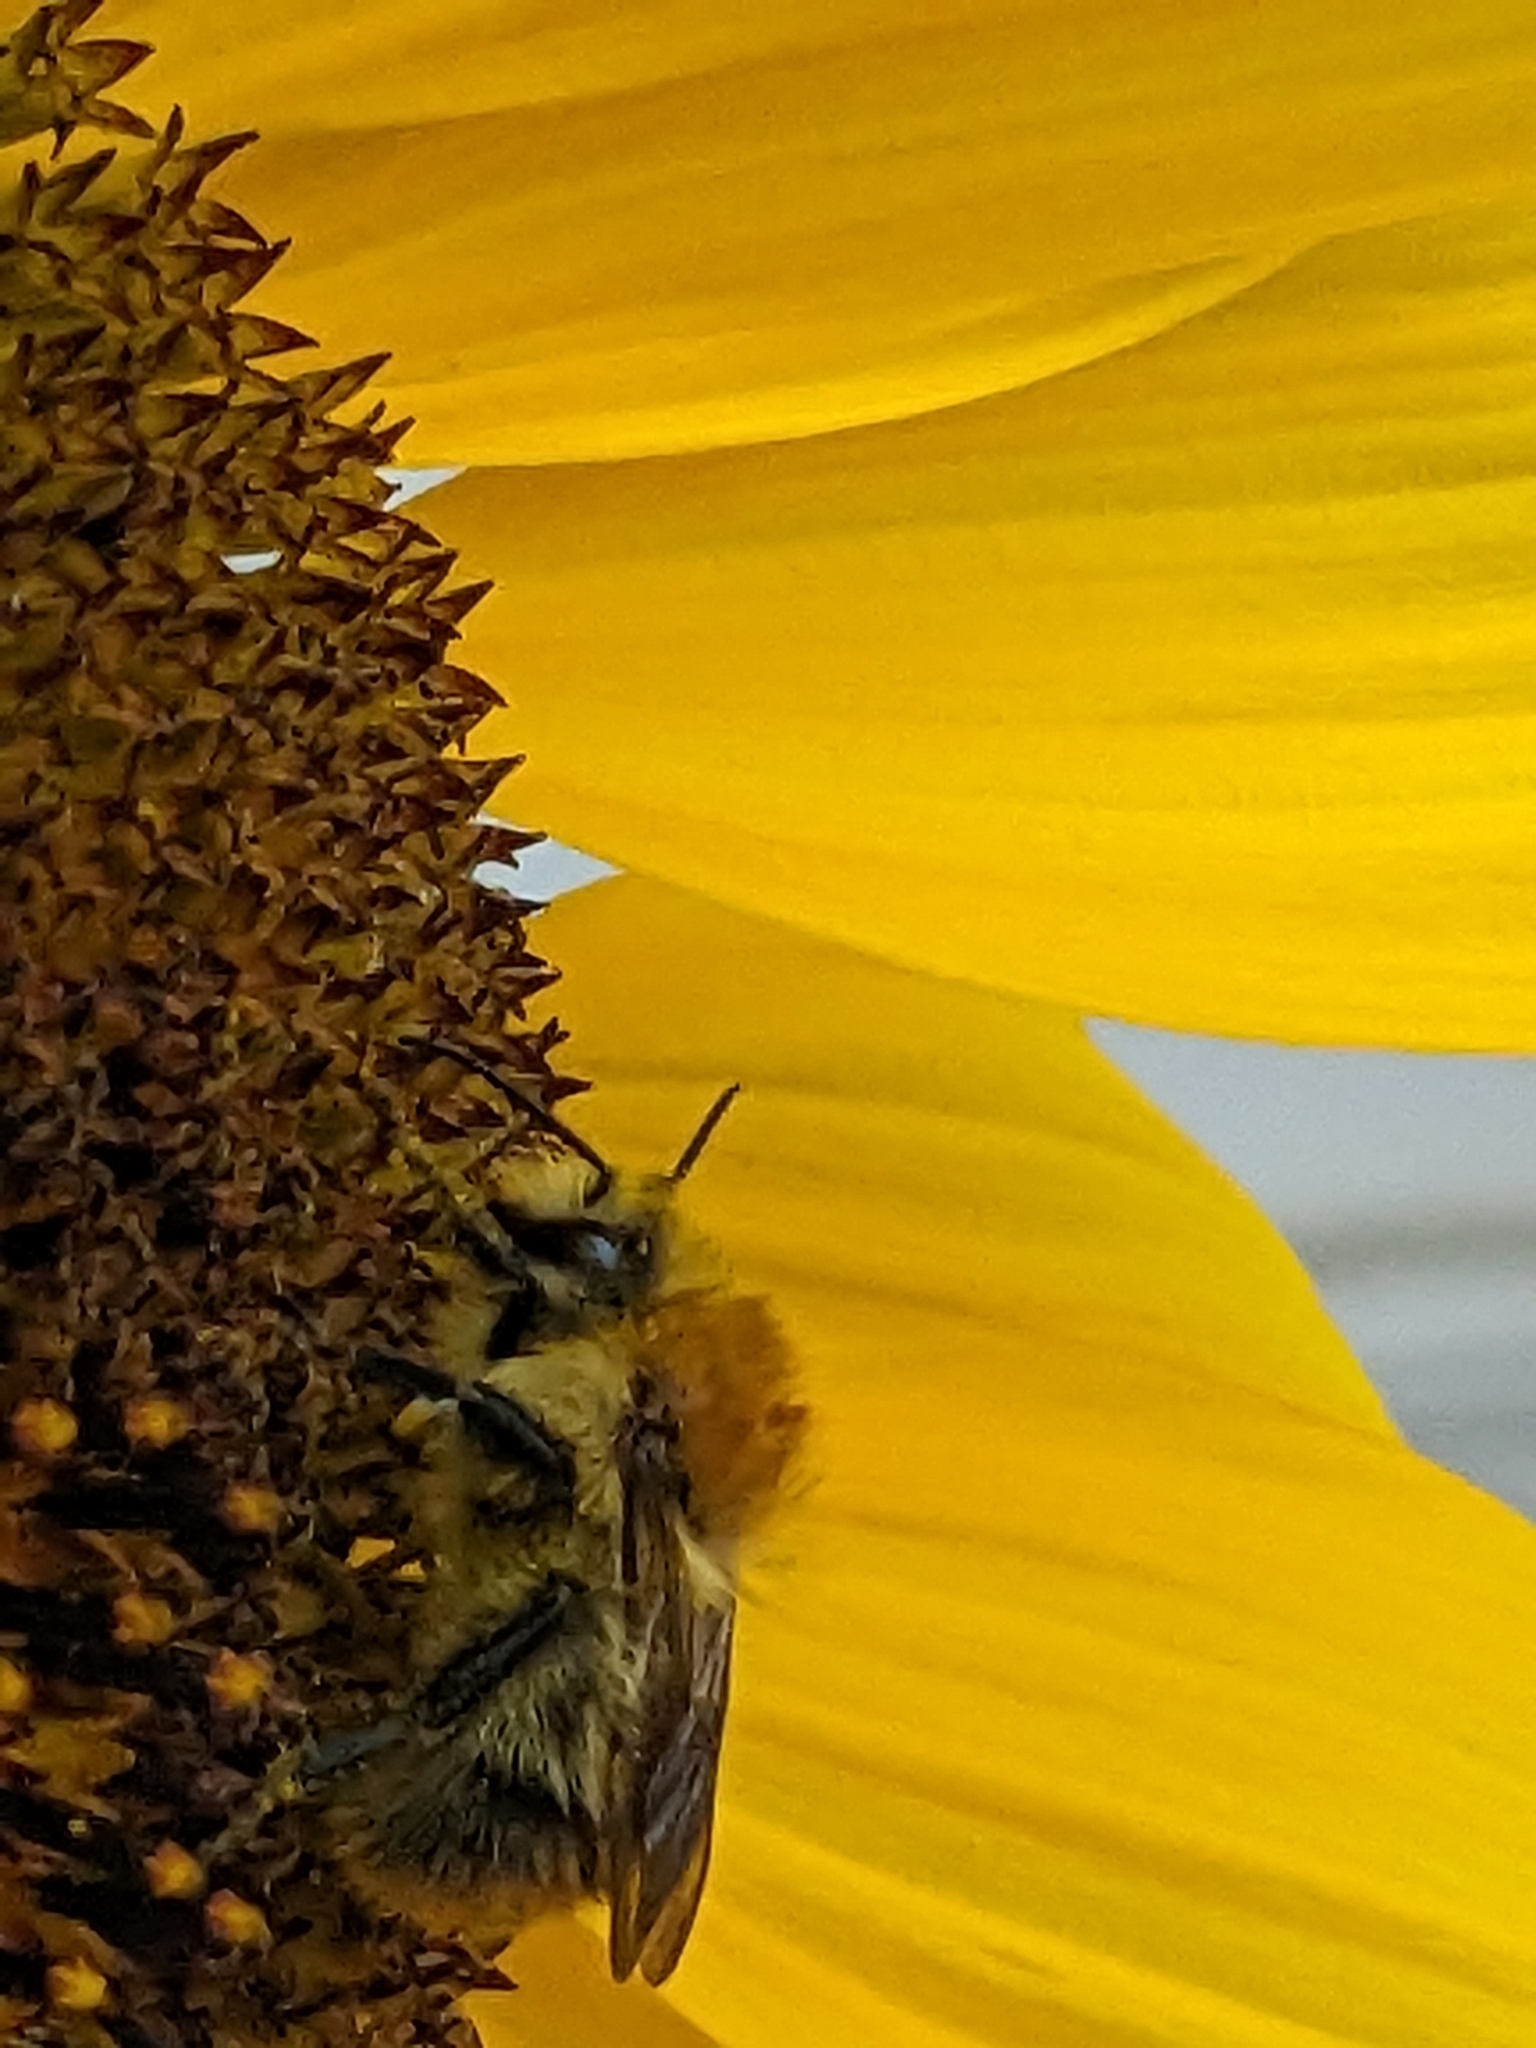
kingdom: Animalia
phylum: Arthropoda
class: Insecta
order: Hymenoptera
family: Apidae
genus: Bombus
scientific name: Bombus pascuorum
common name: Common carder bee
